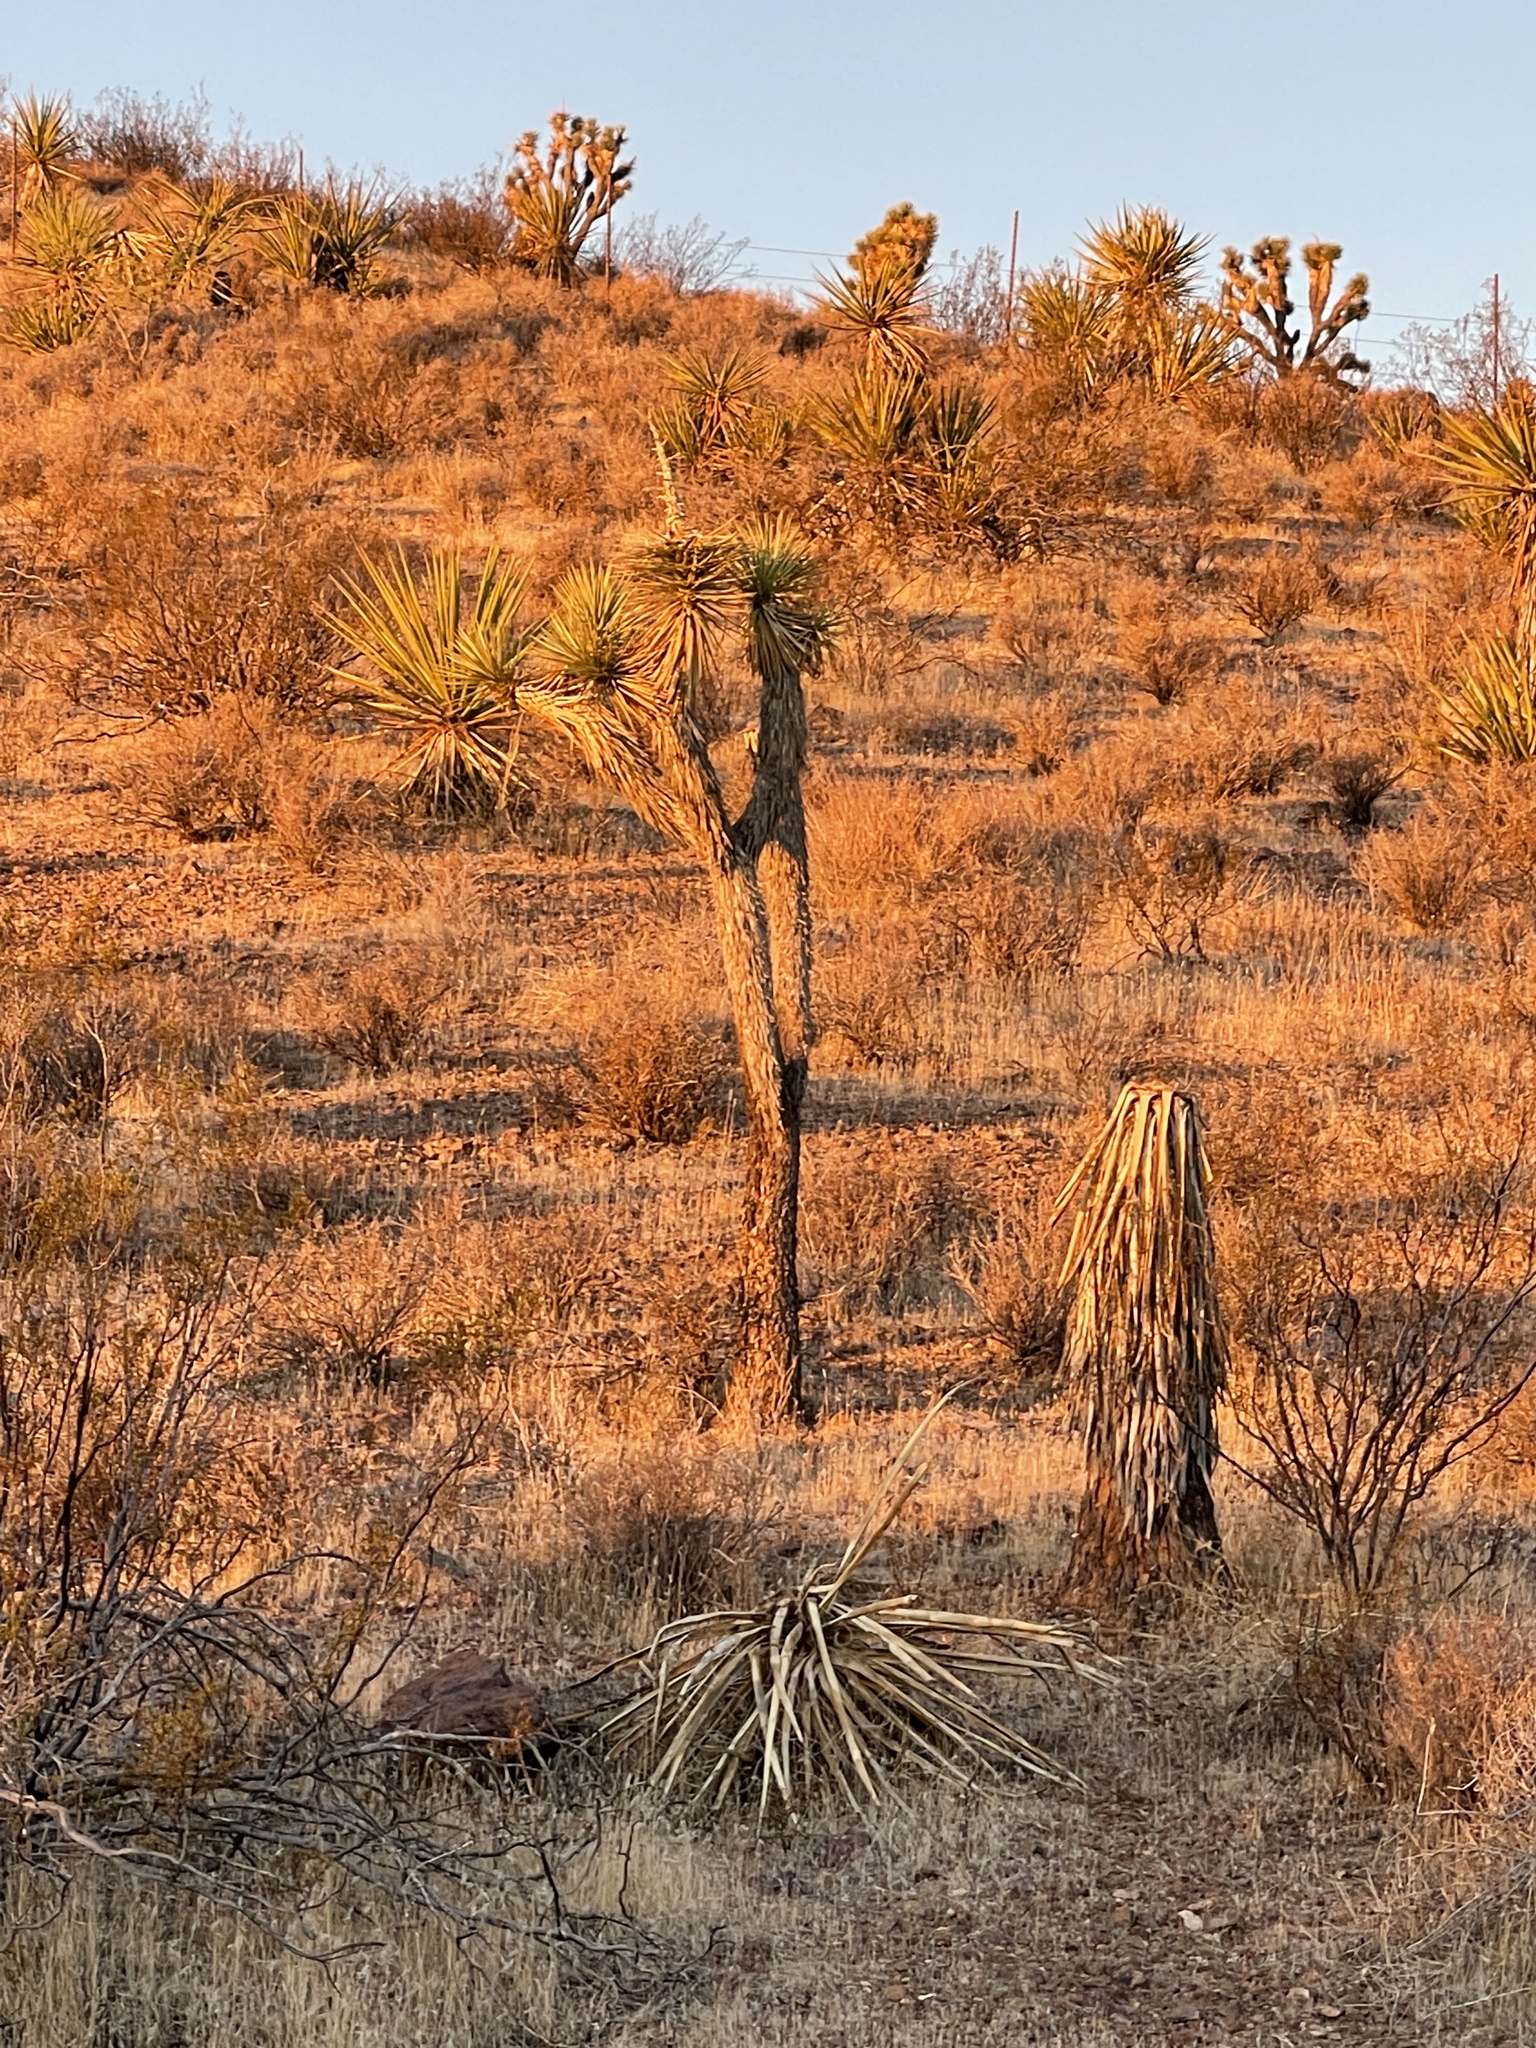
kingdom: Plantae
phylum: Tracheophyta
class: Liliopsida
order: Asparagales
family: Asparagaceae
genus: Yucca
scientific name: Yucca brevifolia
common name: Joshua tree
